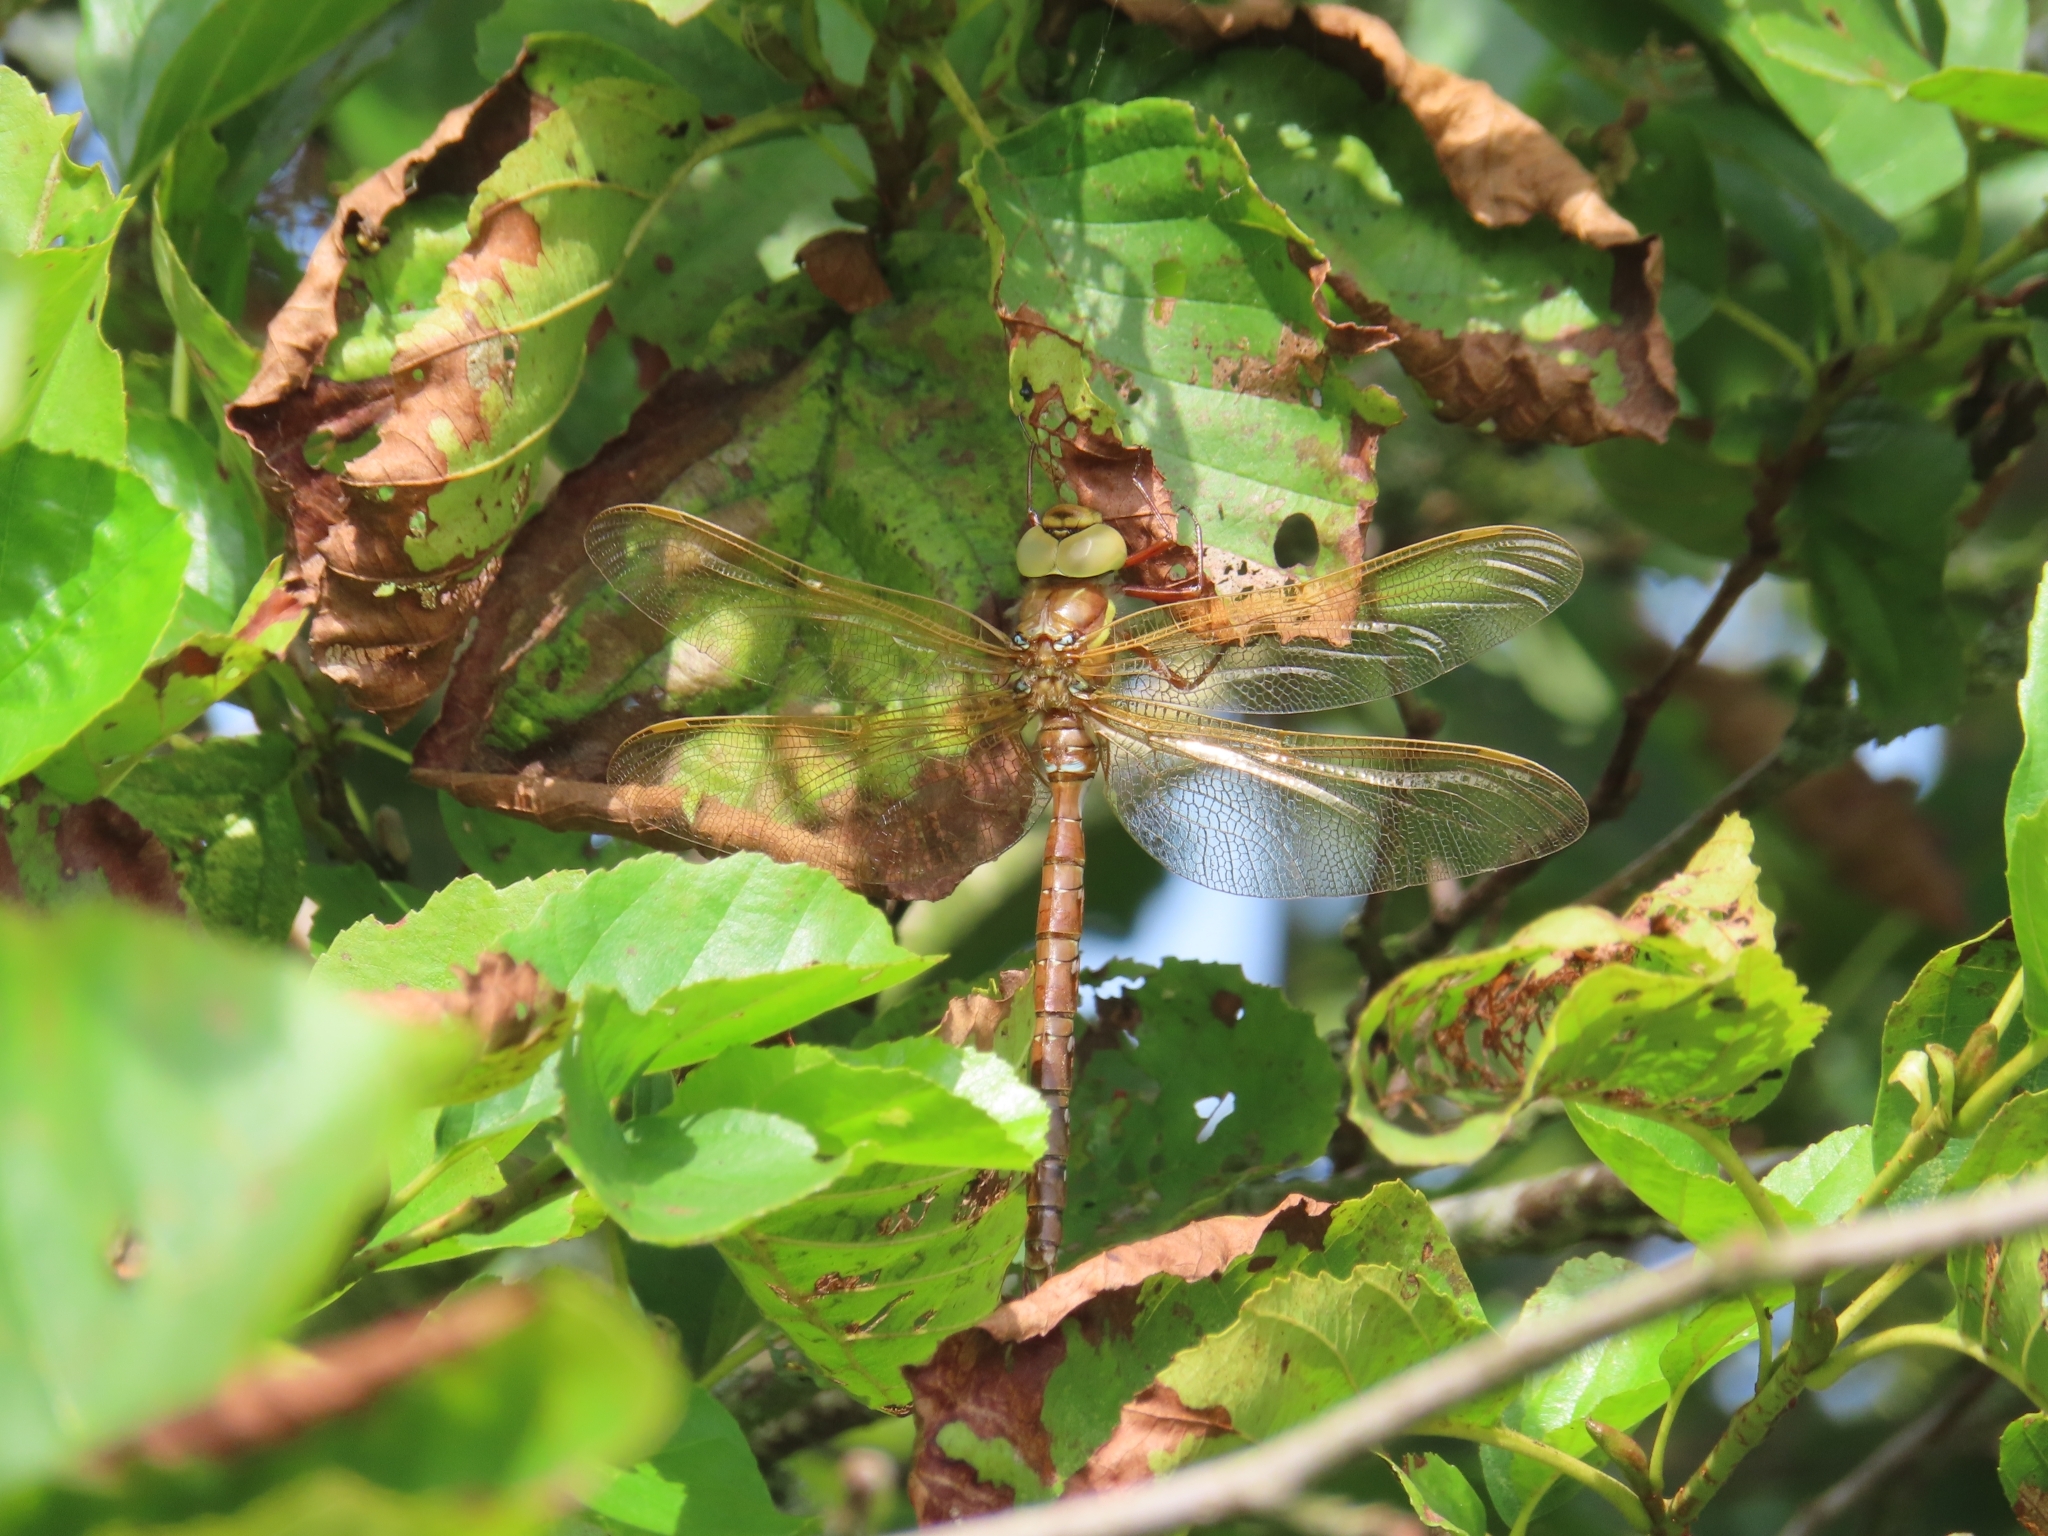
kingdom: Animalia
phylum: Arthropoda
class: Insecta
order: Odonata
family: Aeshnidae
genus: Aeshna
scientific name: Aeshna grandis
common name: Brown hawker
